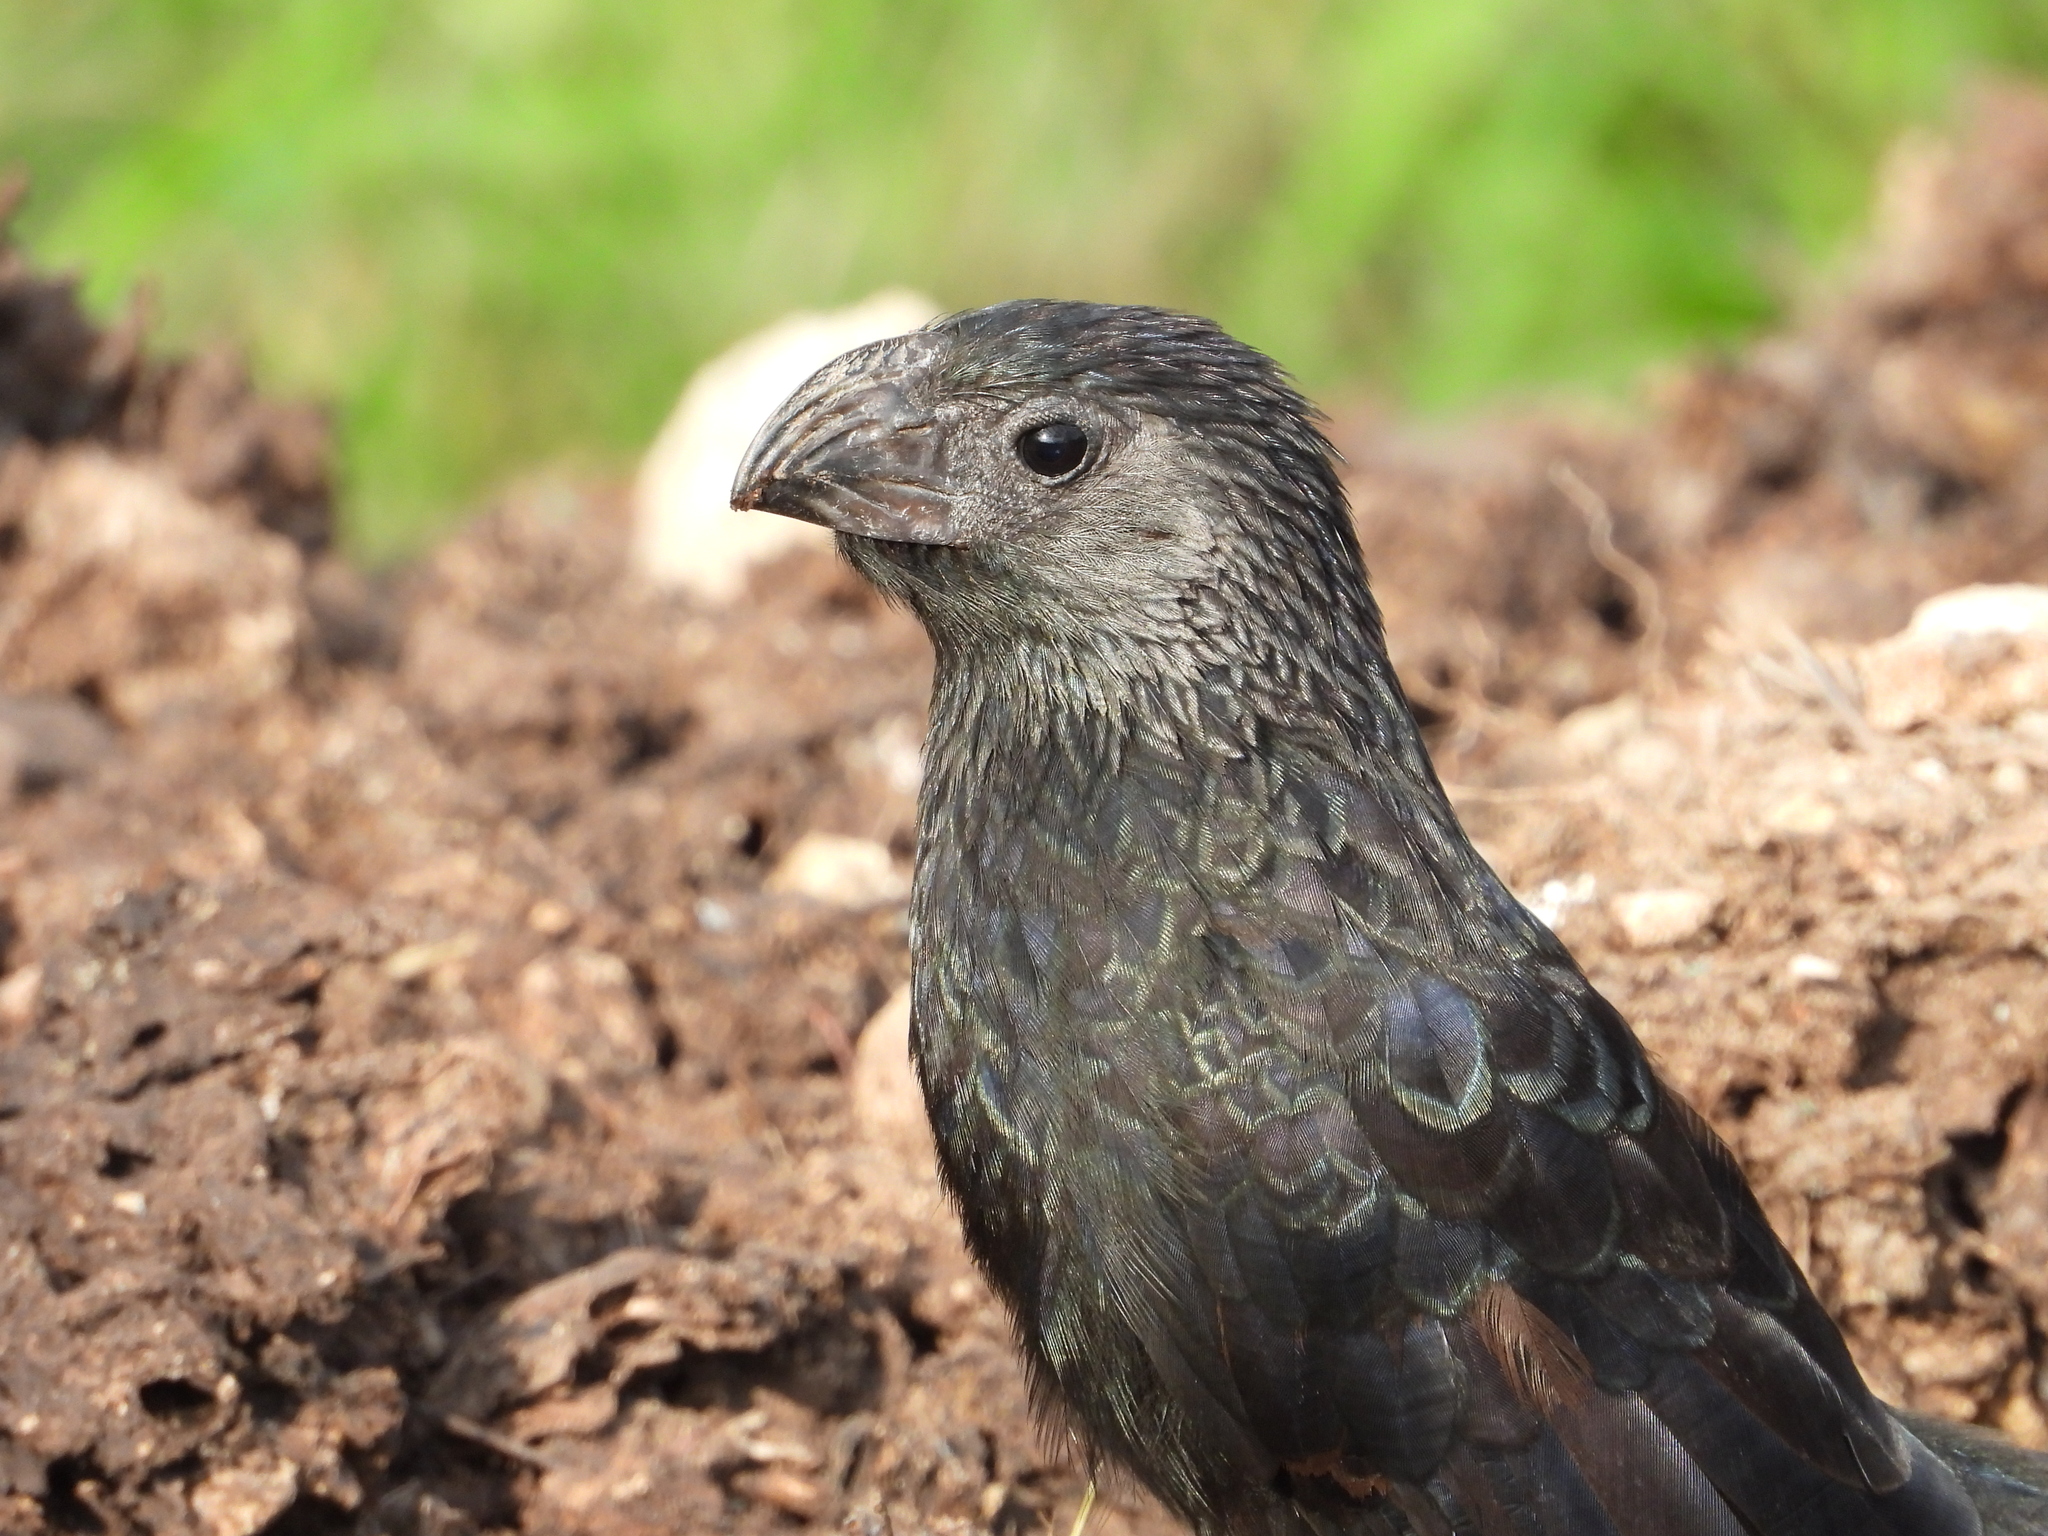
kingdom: Animalia
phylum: Chordata
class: Aves
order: Cuculiformes
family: Cuculidae
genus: Crotophaga
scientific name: Crotophaga sulcirostris
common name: Groove-billed ani
